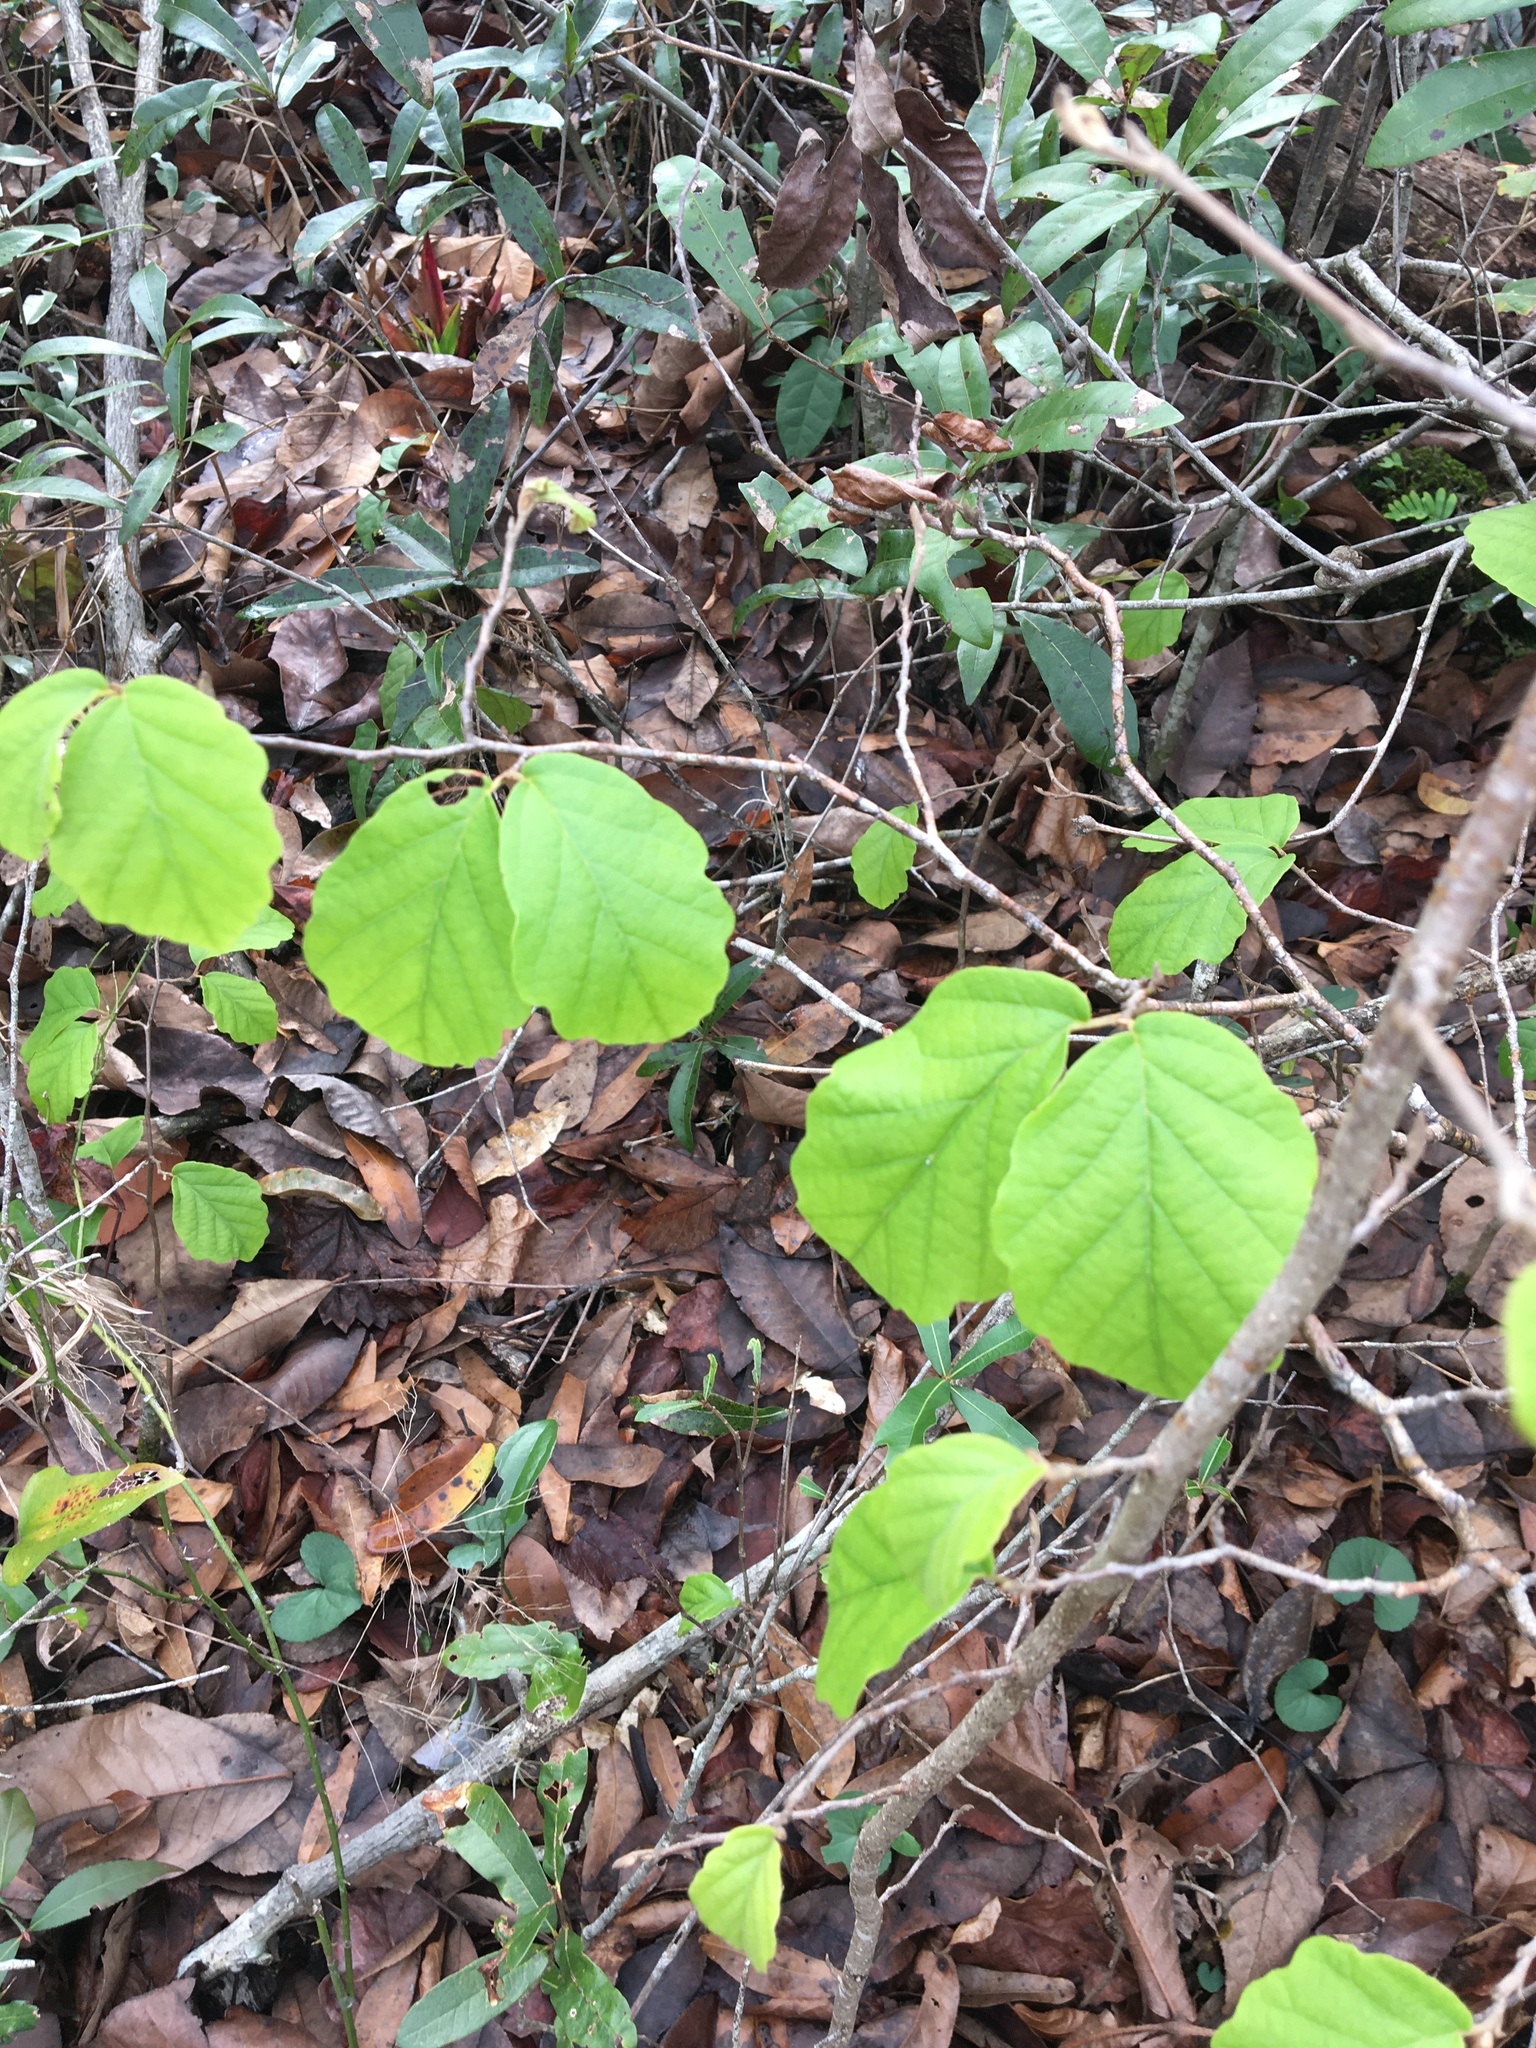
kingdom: Plantae
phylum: Tracheophyta
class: Magnoliopsida
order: Saxifragales
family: Hamamelidaceae
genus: Hamamelis
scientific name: Hamamelis virginiana
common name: Witch-hazel
